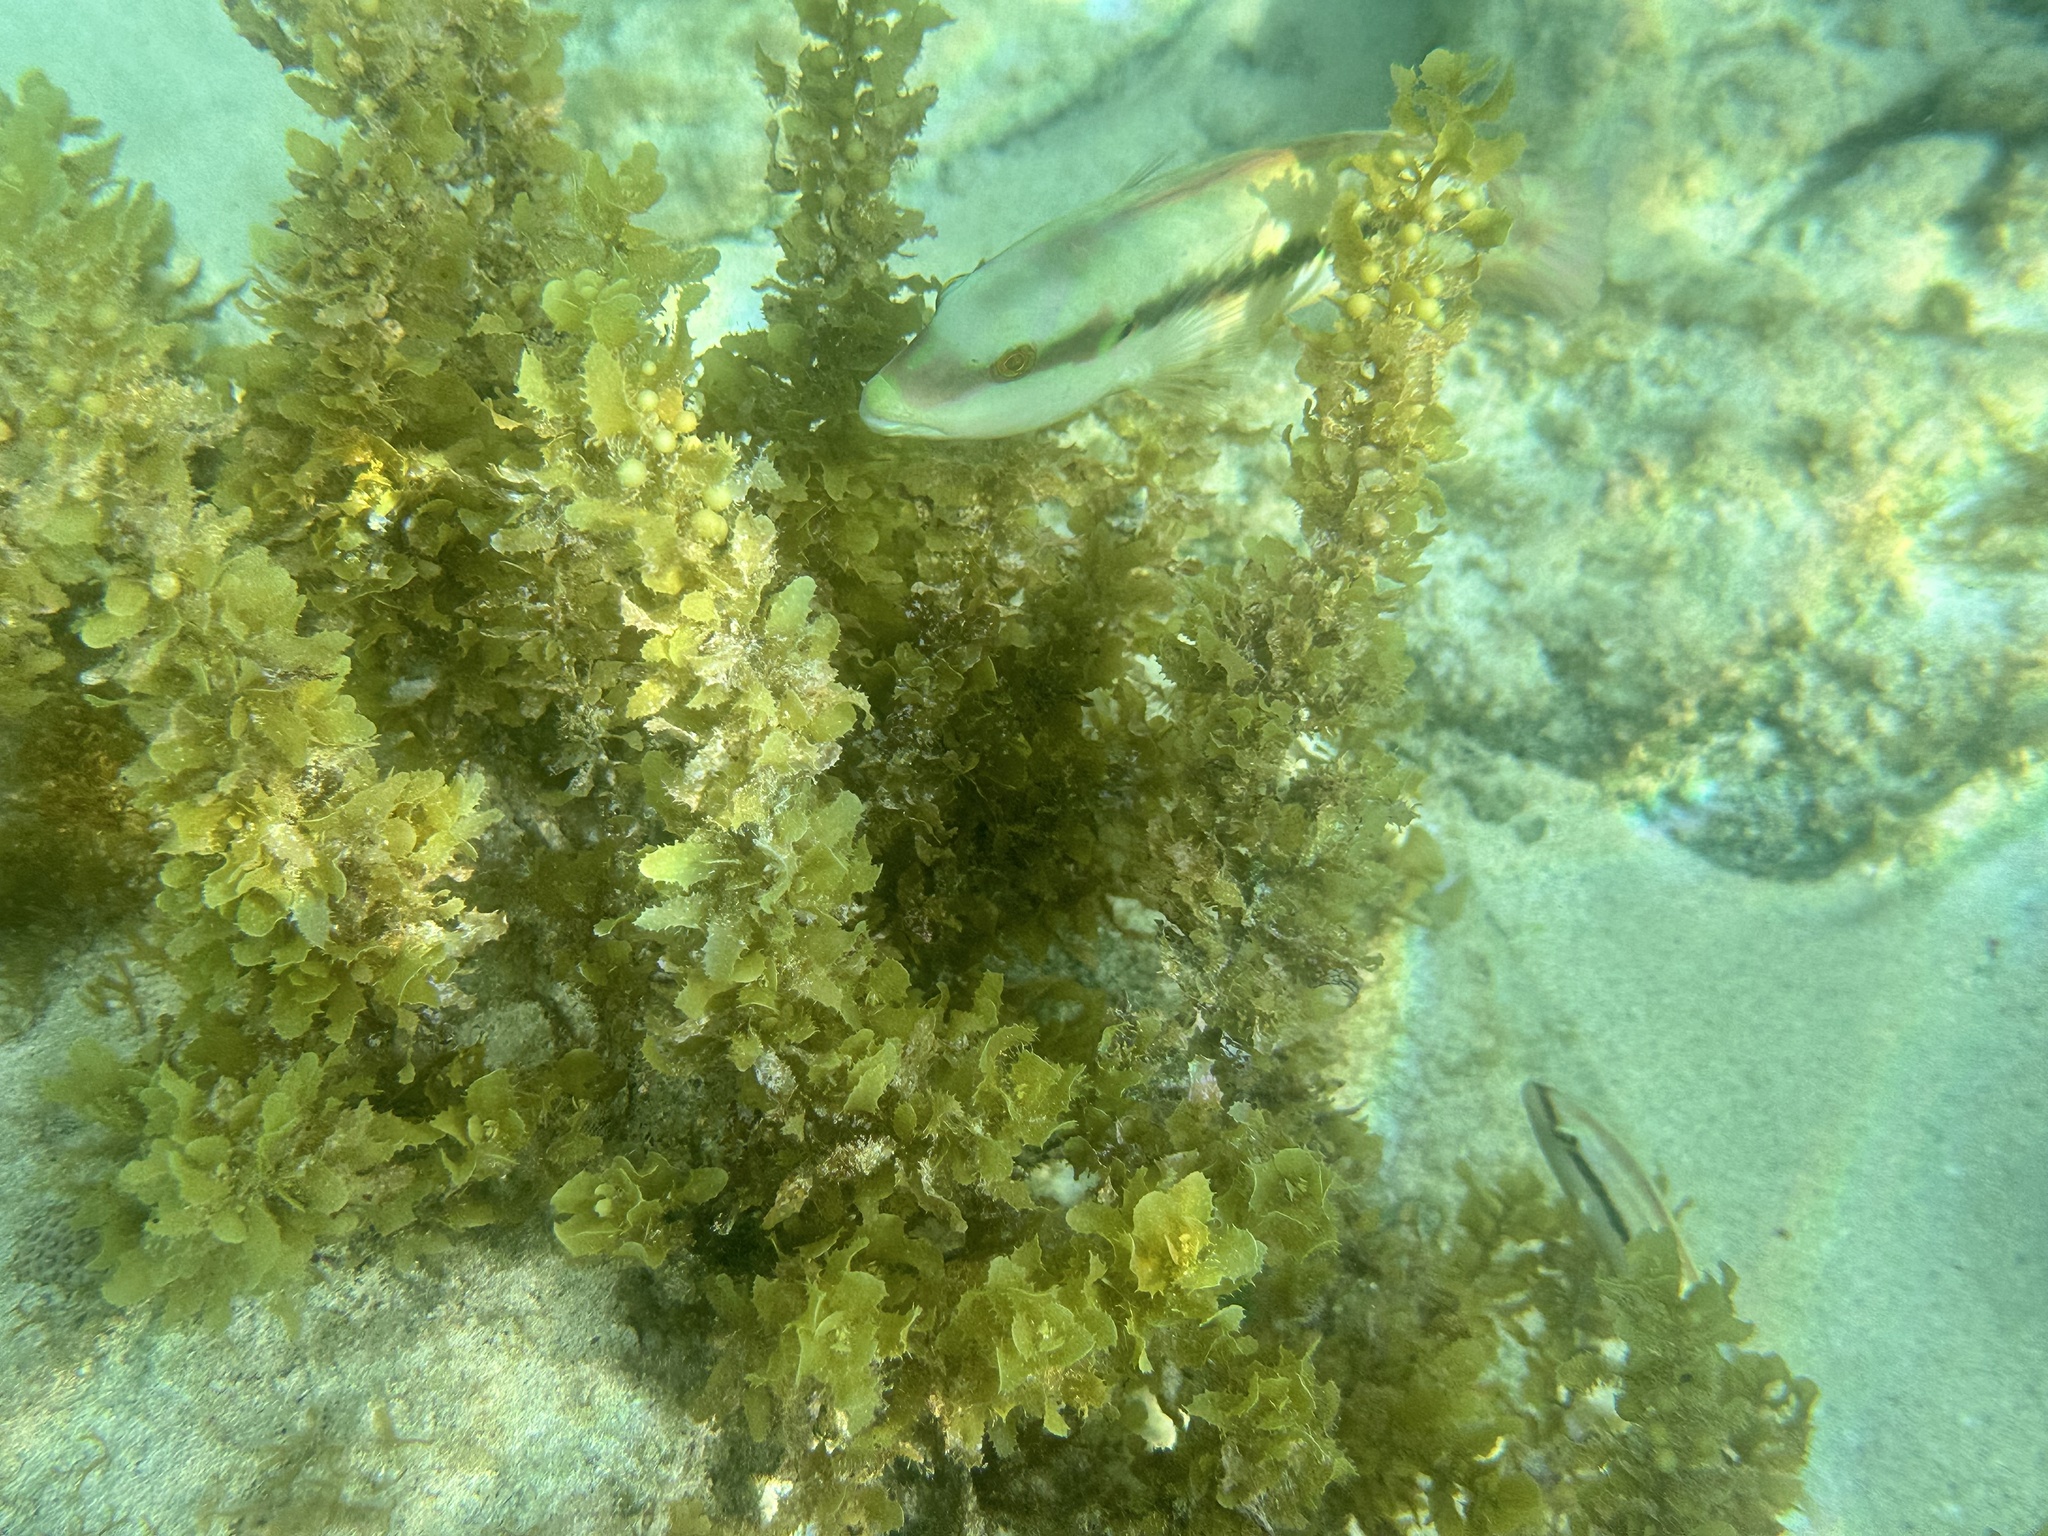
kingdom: Animalia
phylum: Chordata
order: Perciformes
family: Labridae
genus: Halichoeres
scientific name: Halichoeres bivittatus
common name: Slippery dick
